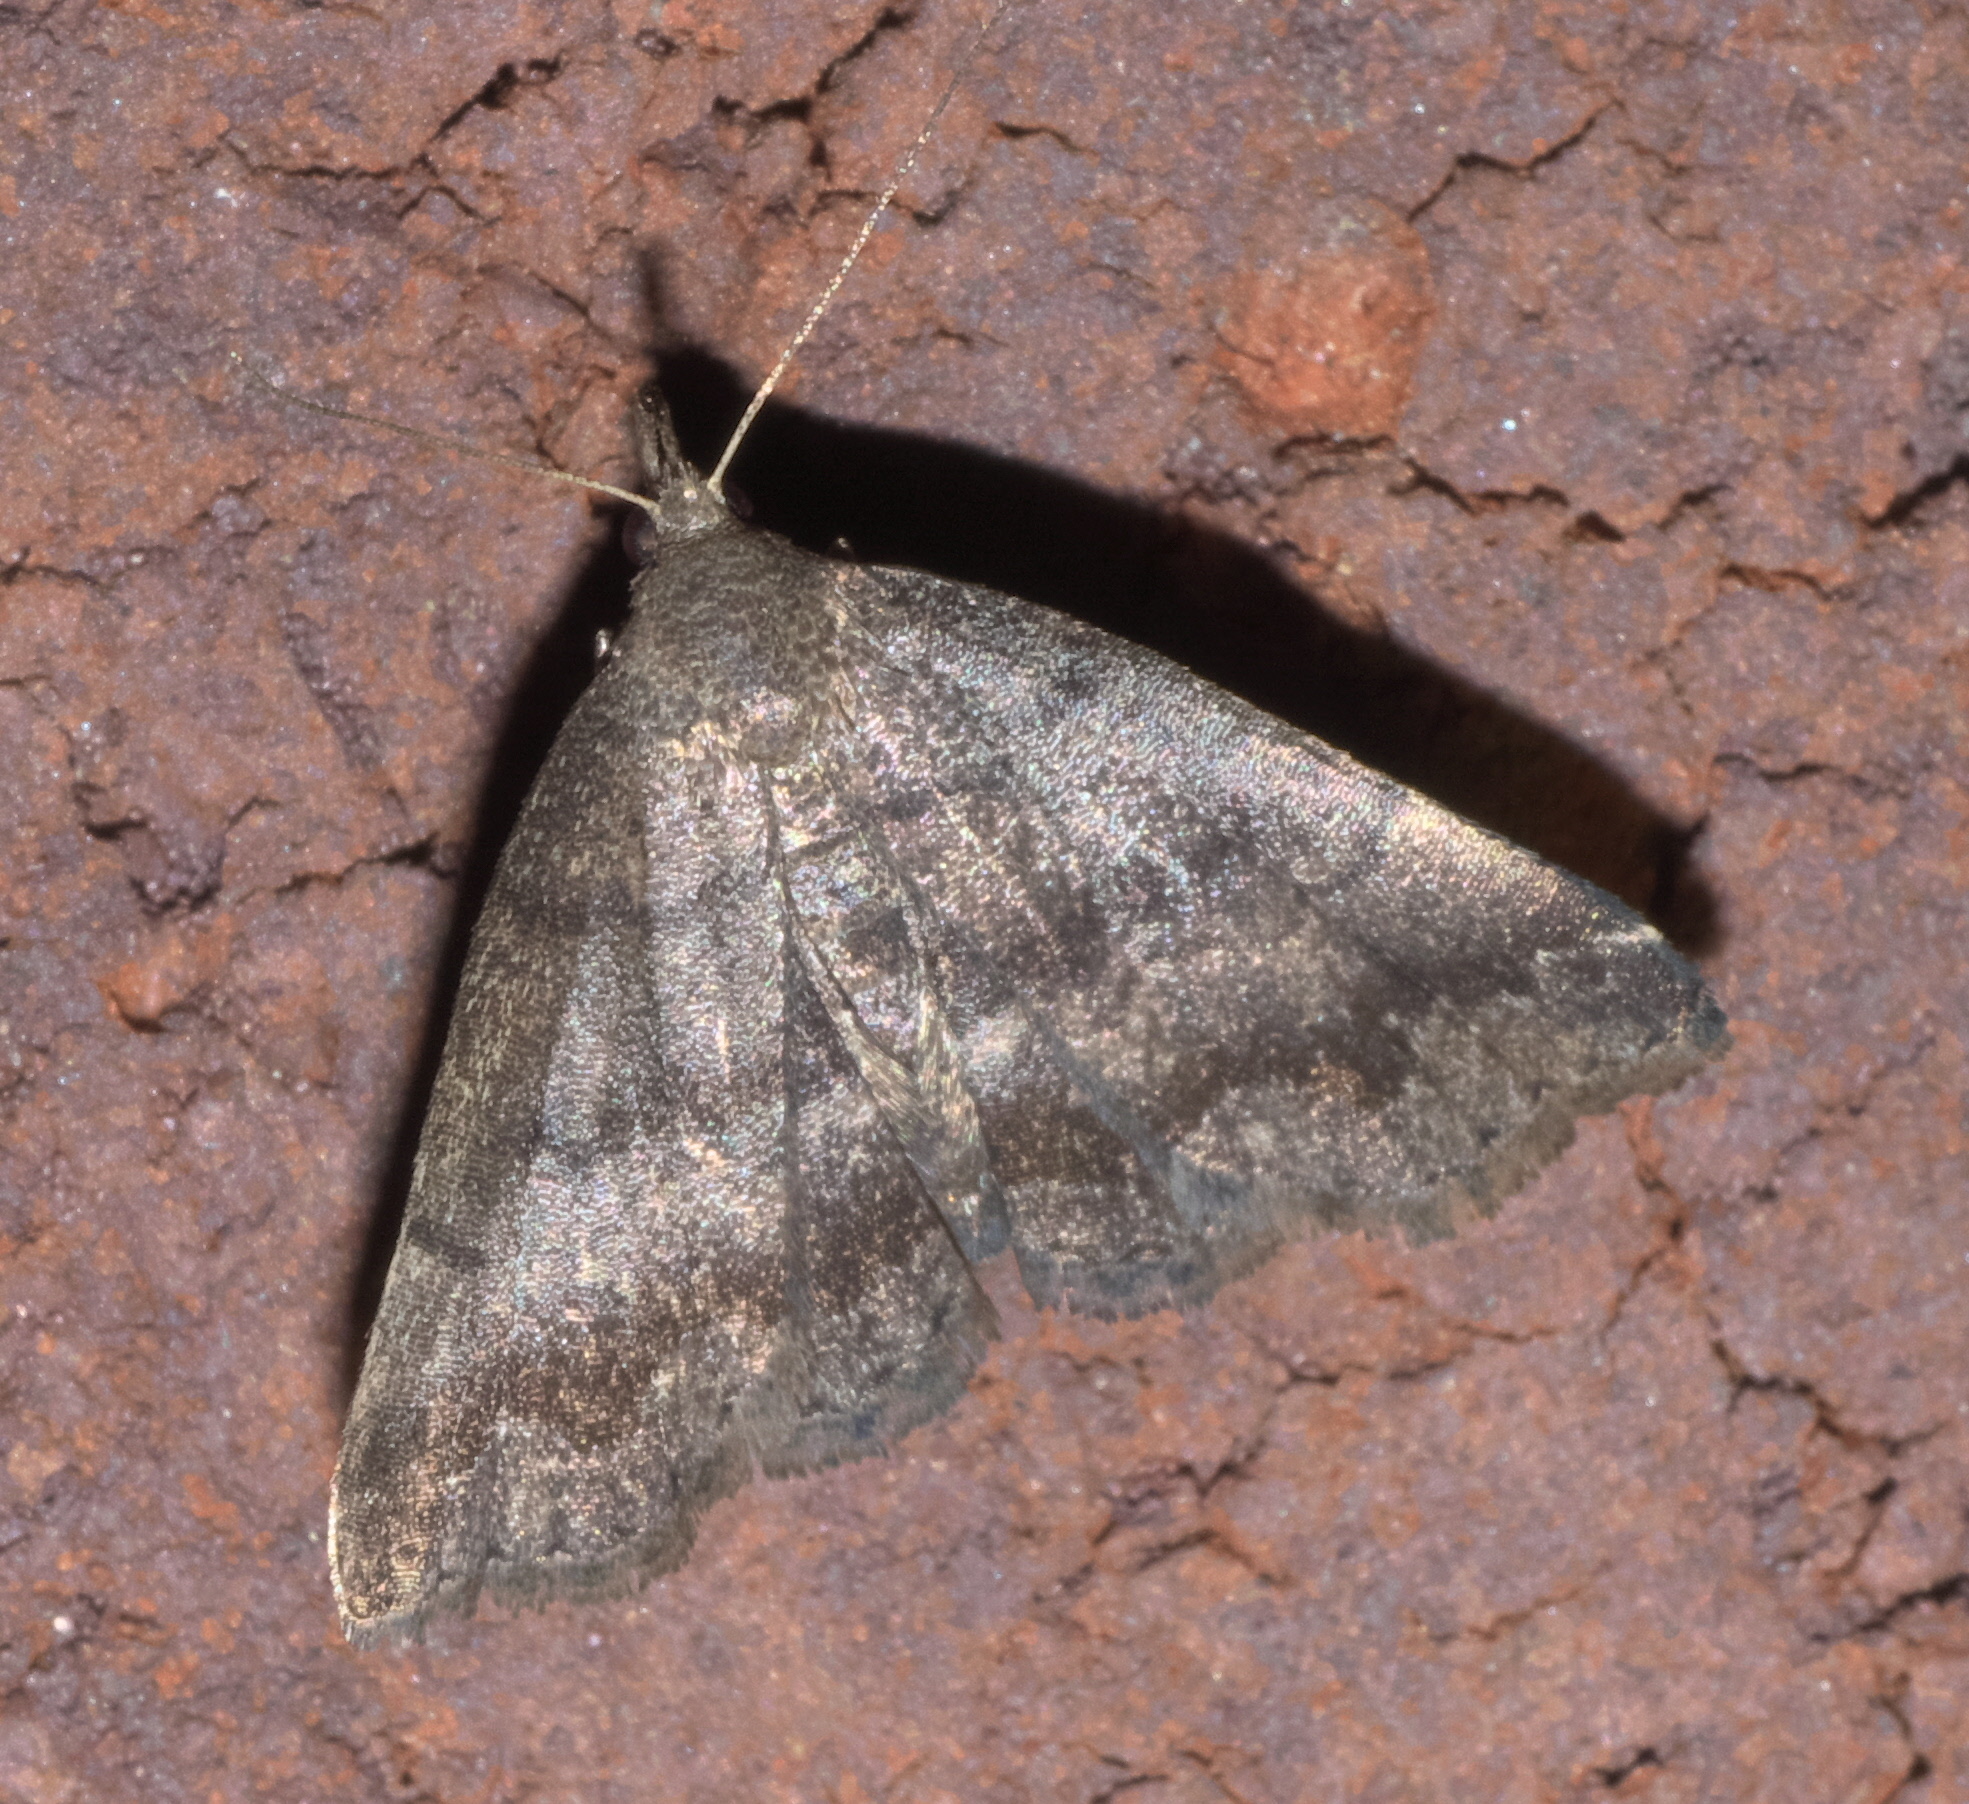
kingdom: Animalia
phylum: Arthropoda
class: Insecta
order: Lepidoptera
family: Erebidae
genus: Phalaenostola
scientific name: Phalaenostola larentioides
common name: Black-banded owlet
